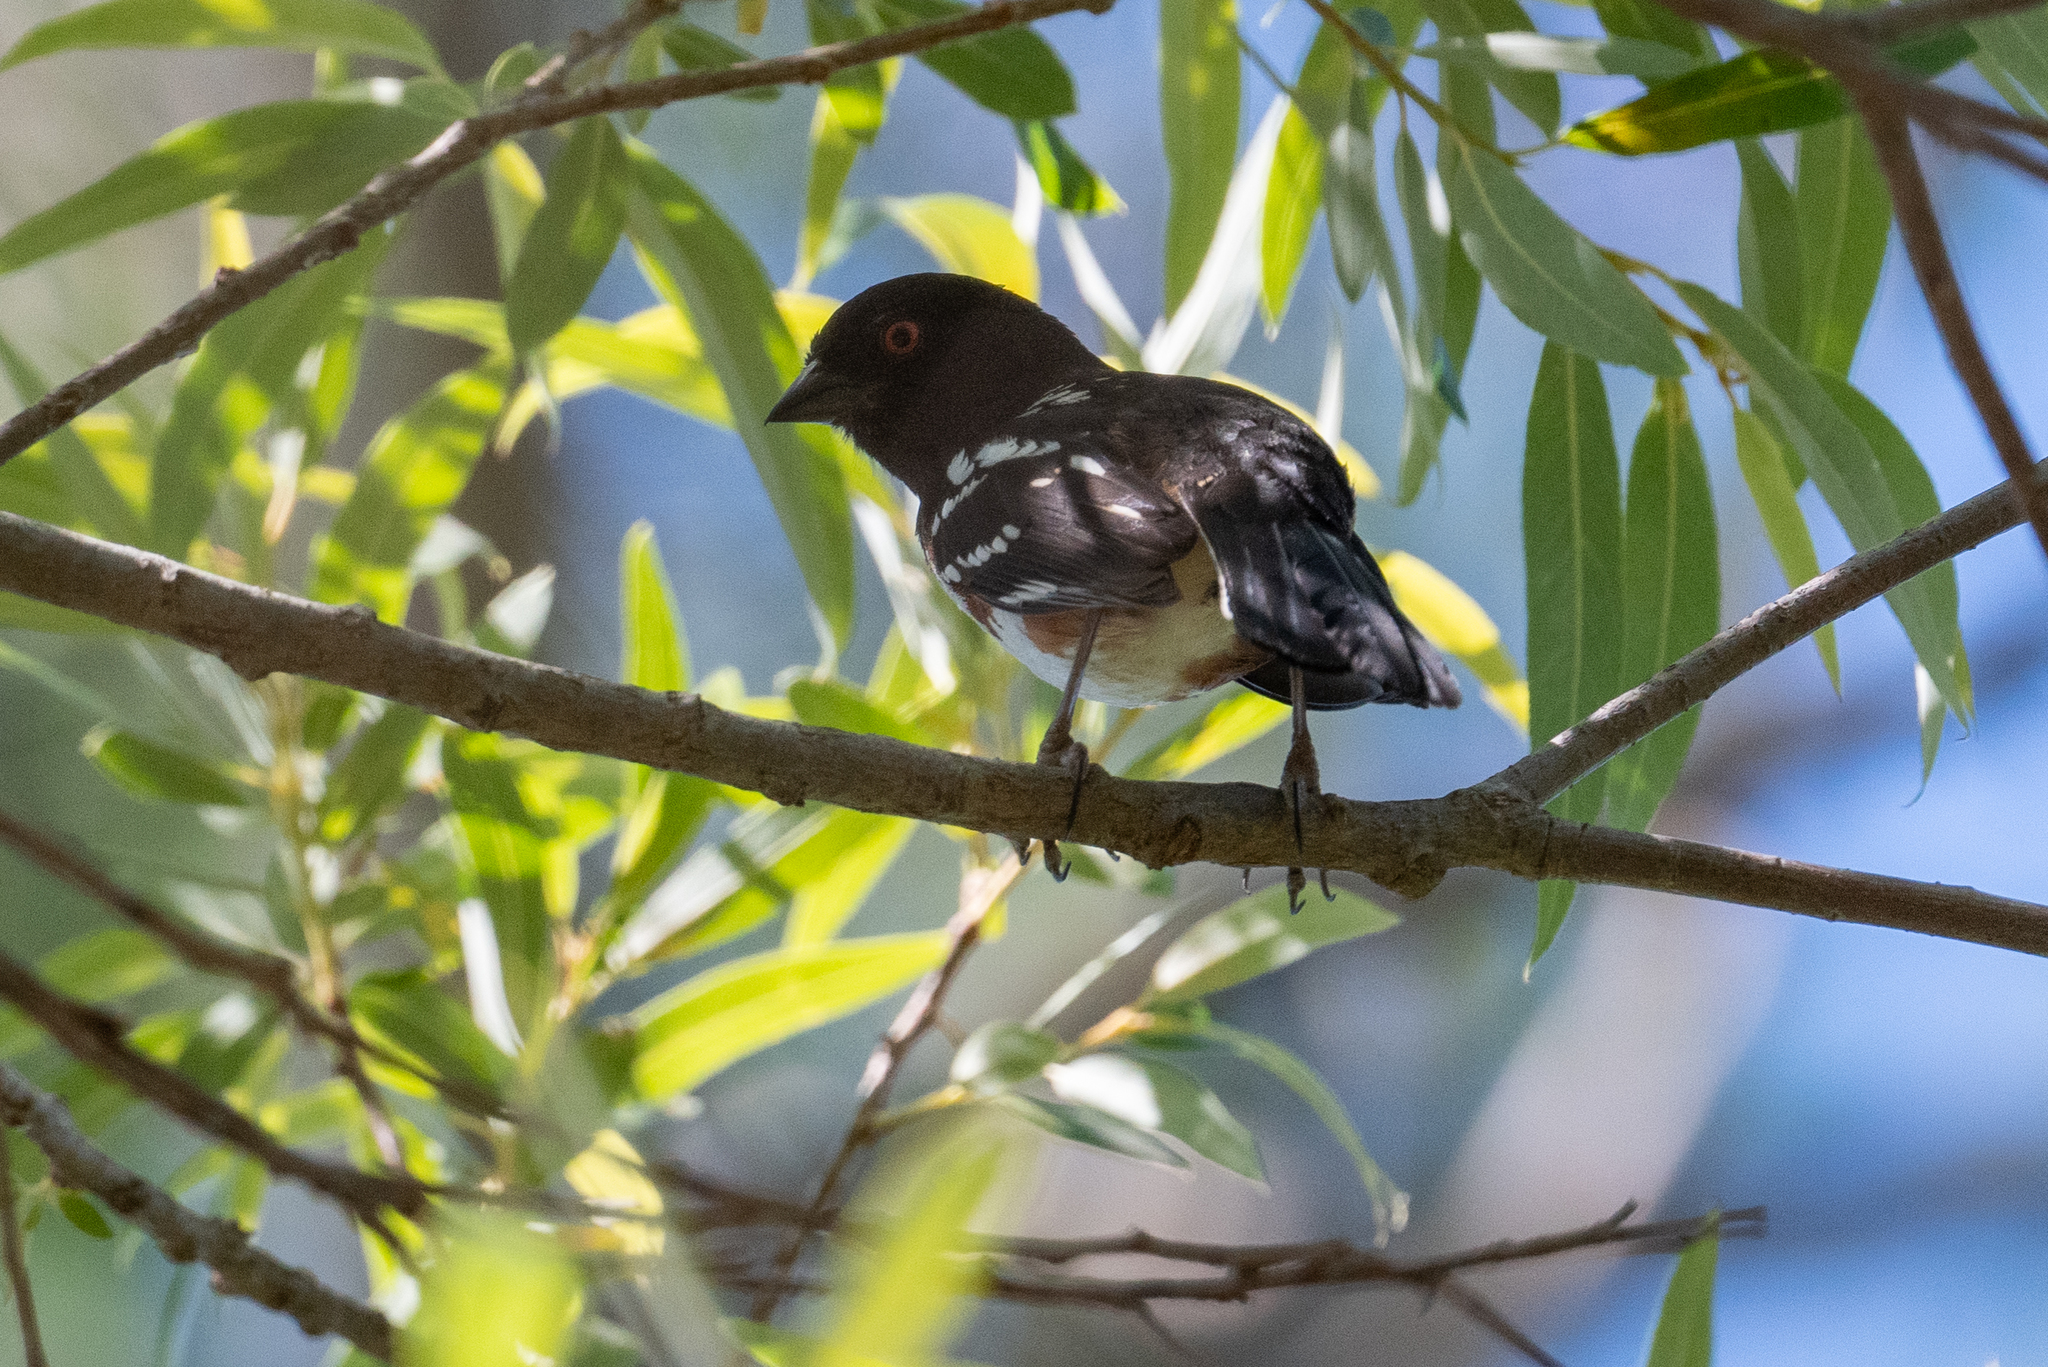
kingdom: Animalia
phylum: Chordata
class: Aves
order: Passeriformes
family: Passerellidae
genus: Pipilo
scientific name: Pipilo maculatus
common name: Spotted towhee
